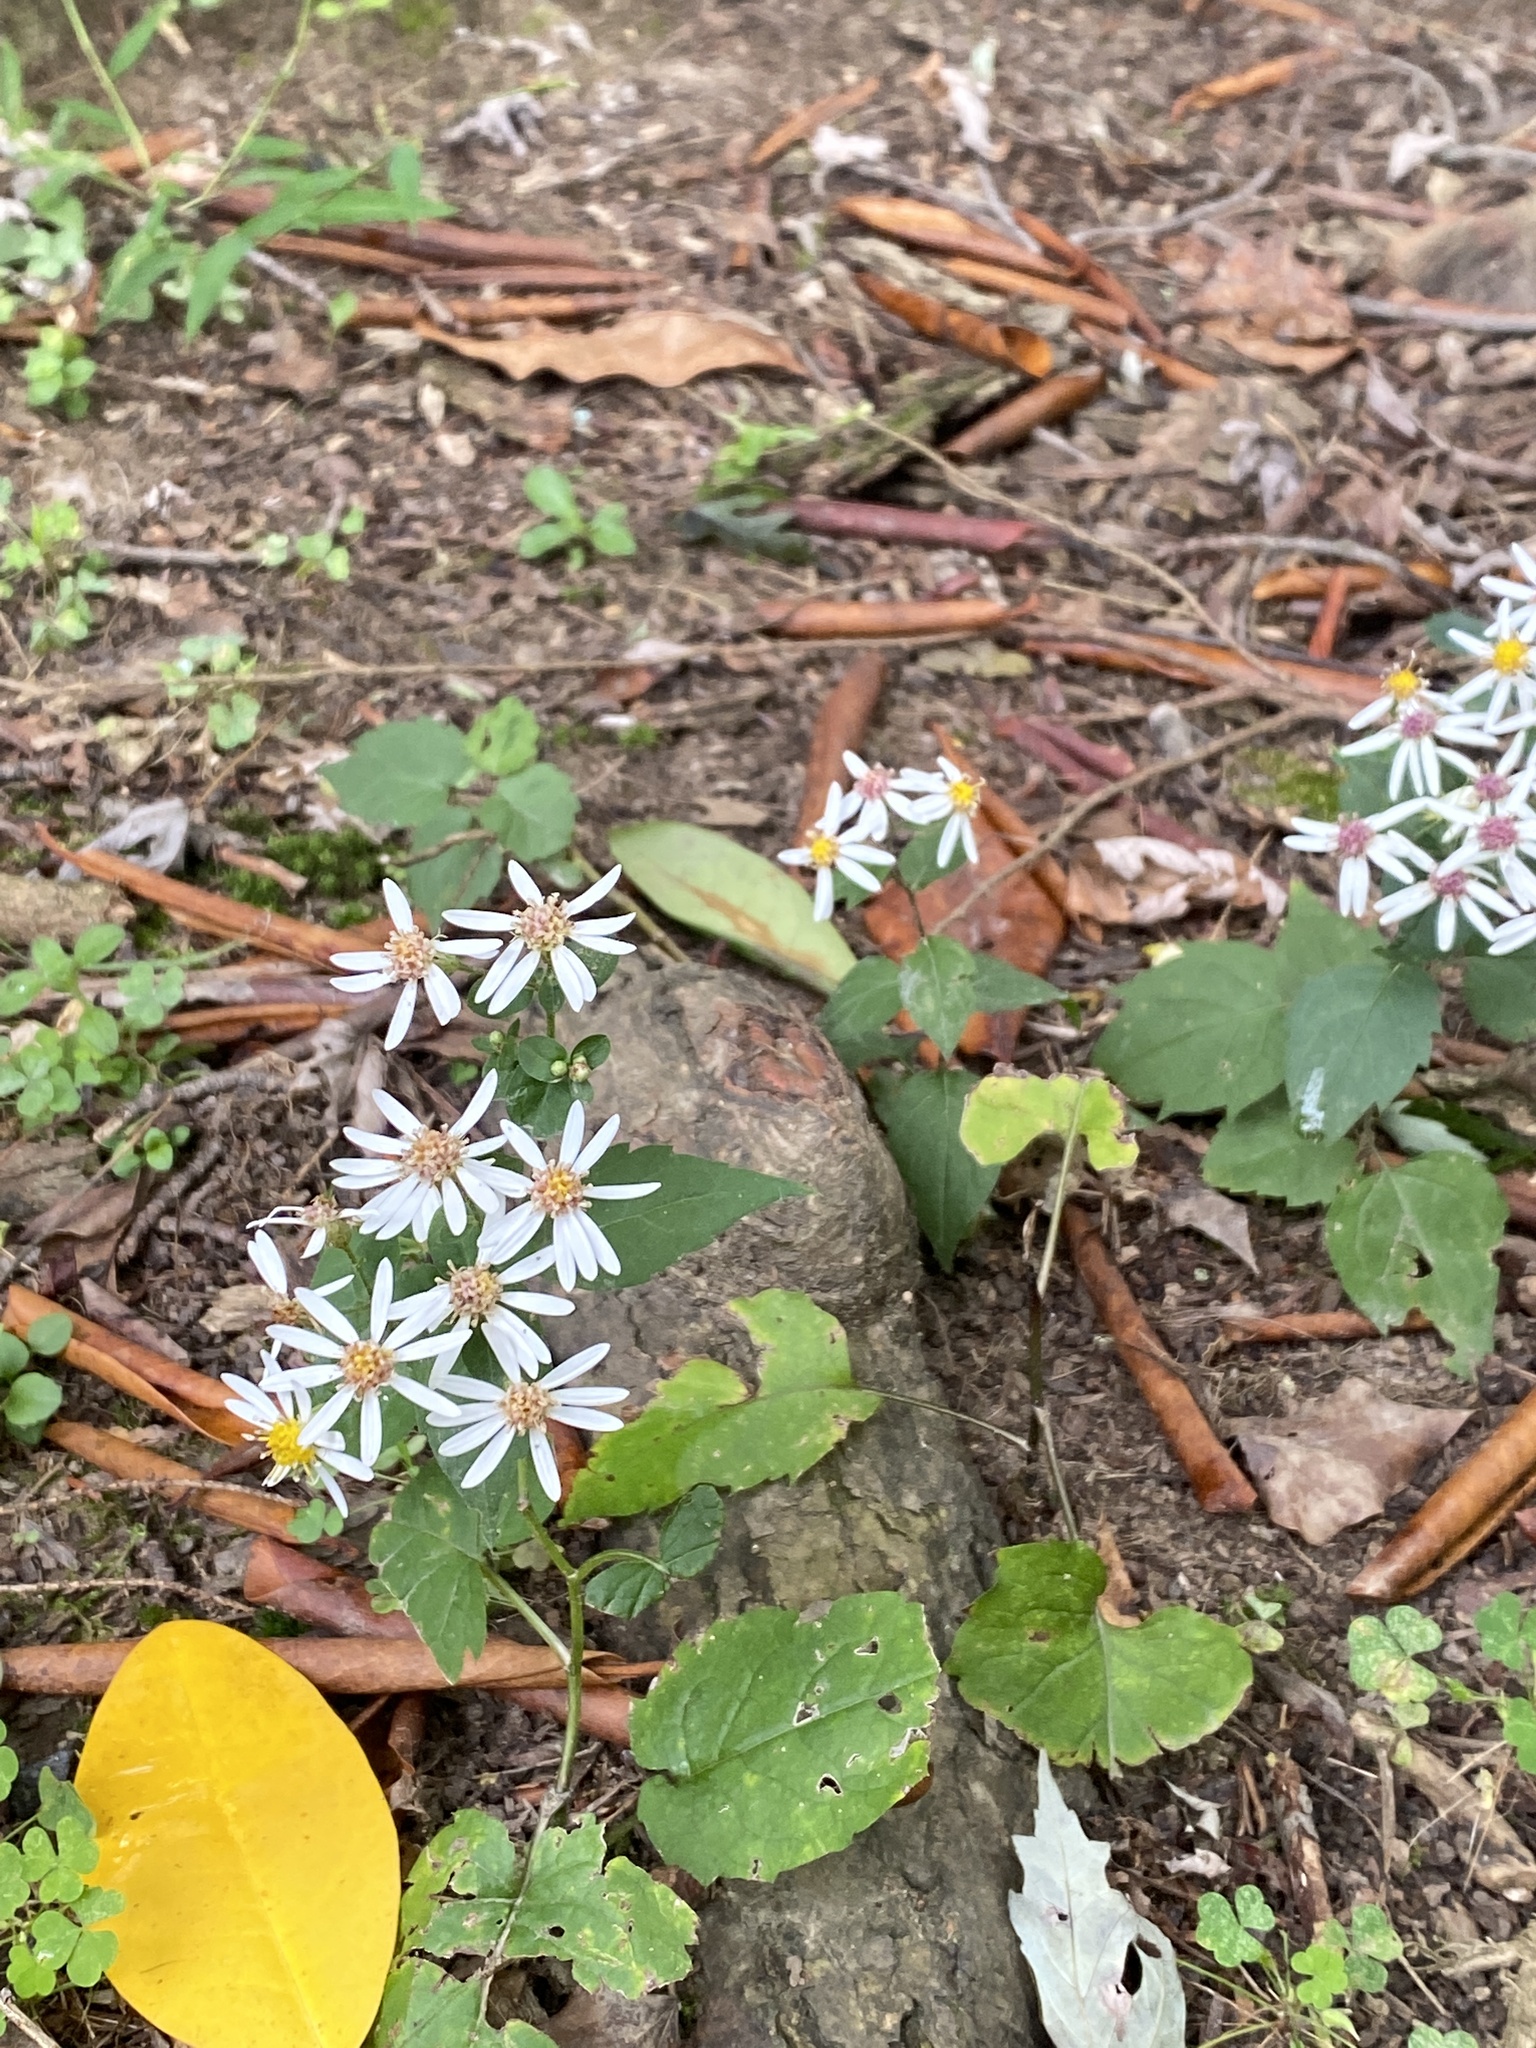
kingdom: Plantae
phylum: Tracheophyta
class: Magnoliopsida
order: Asterales
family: Asteraceae
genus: Eurybia
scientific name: Eurybia divaricata
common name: White wood aster
